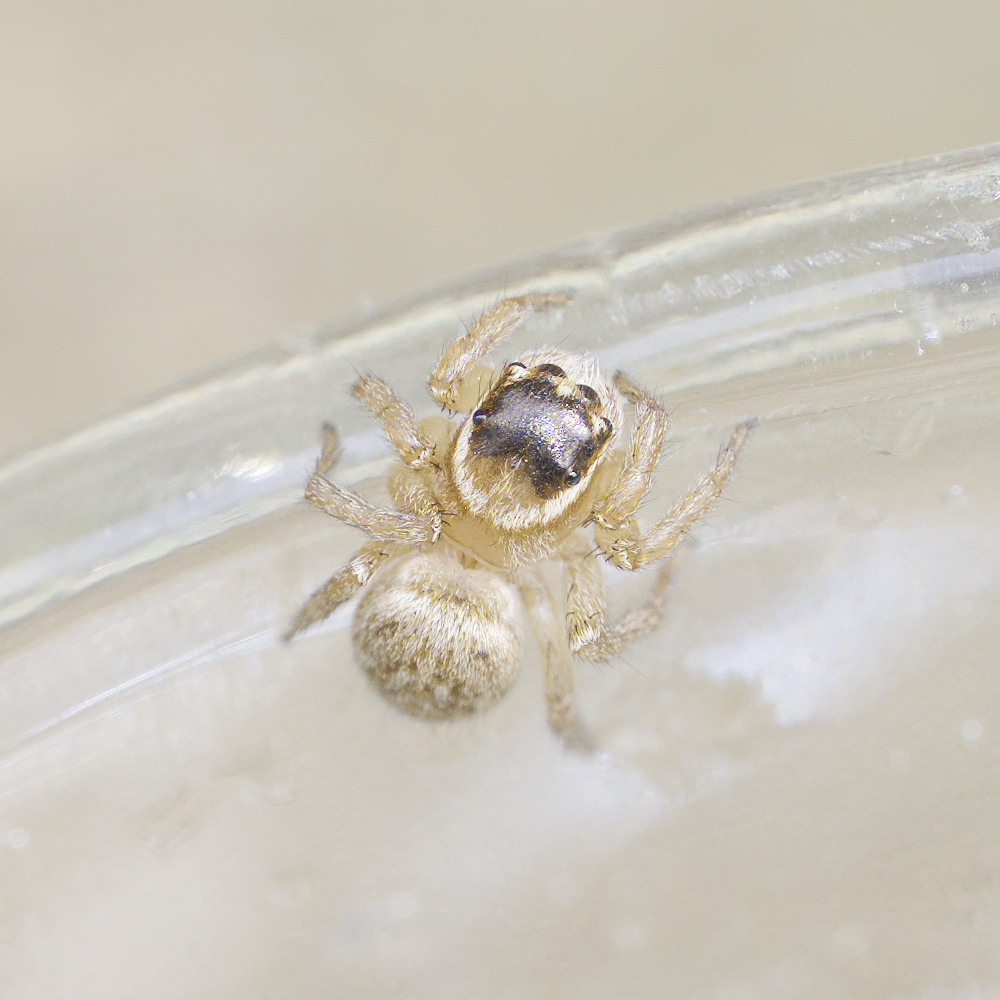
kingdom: Animalia
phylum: Arthropoda
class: Arachnida
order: Araneae
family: Salticidae
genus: Maratus
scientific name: Maratus griseus
